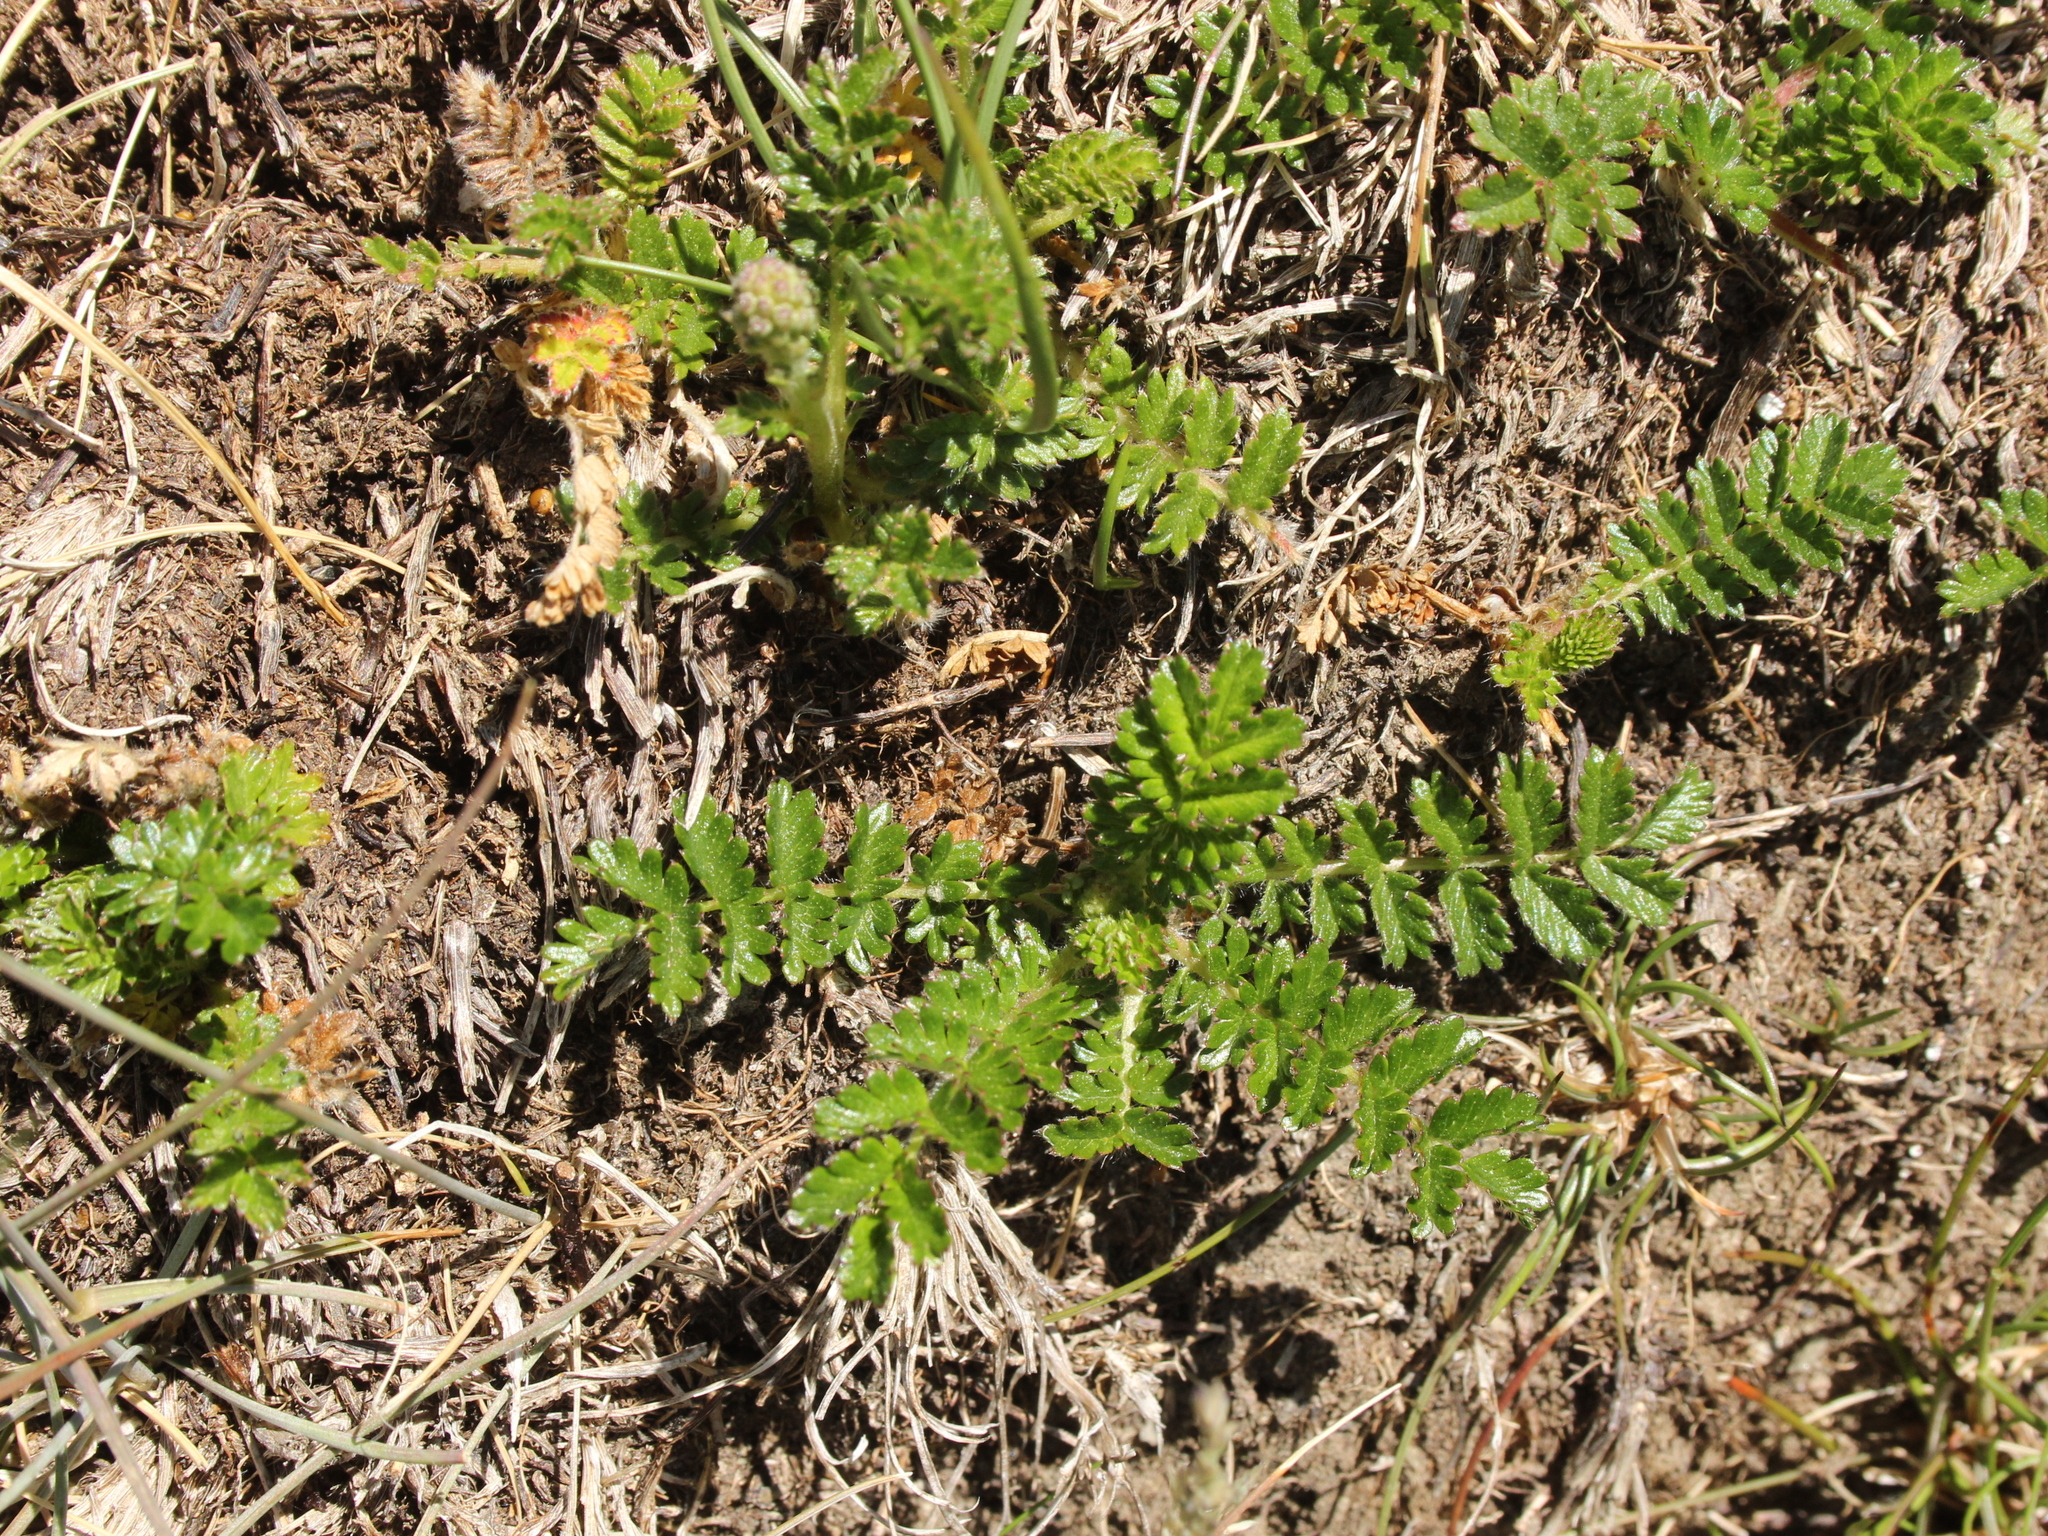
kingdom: Plantae
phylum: Tracheophyta
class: Magnoliopsida
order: Rosales
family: Rosaceae
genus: Acaena
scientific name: Acaena agnipila
